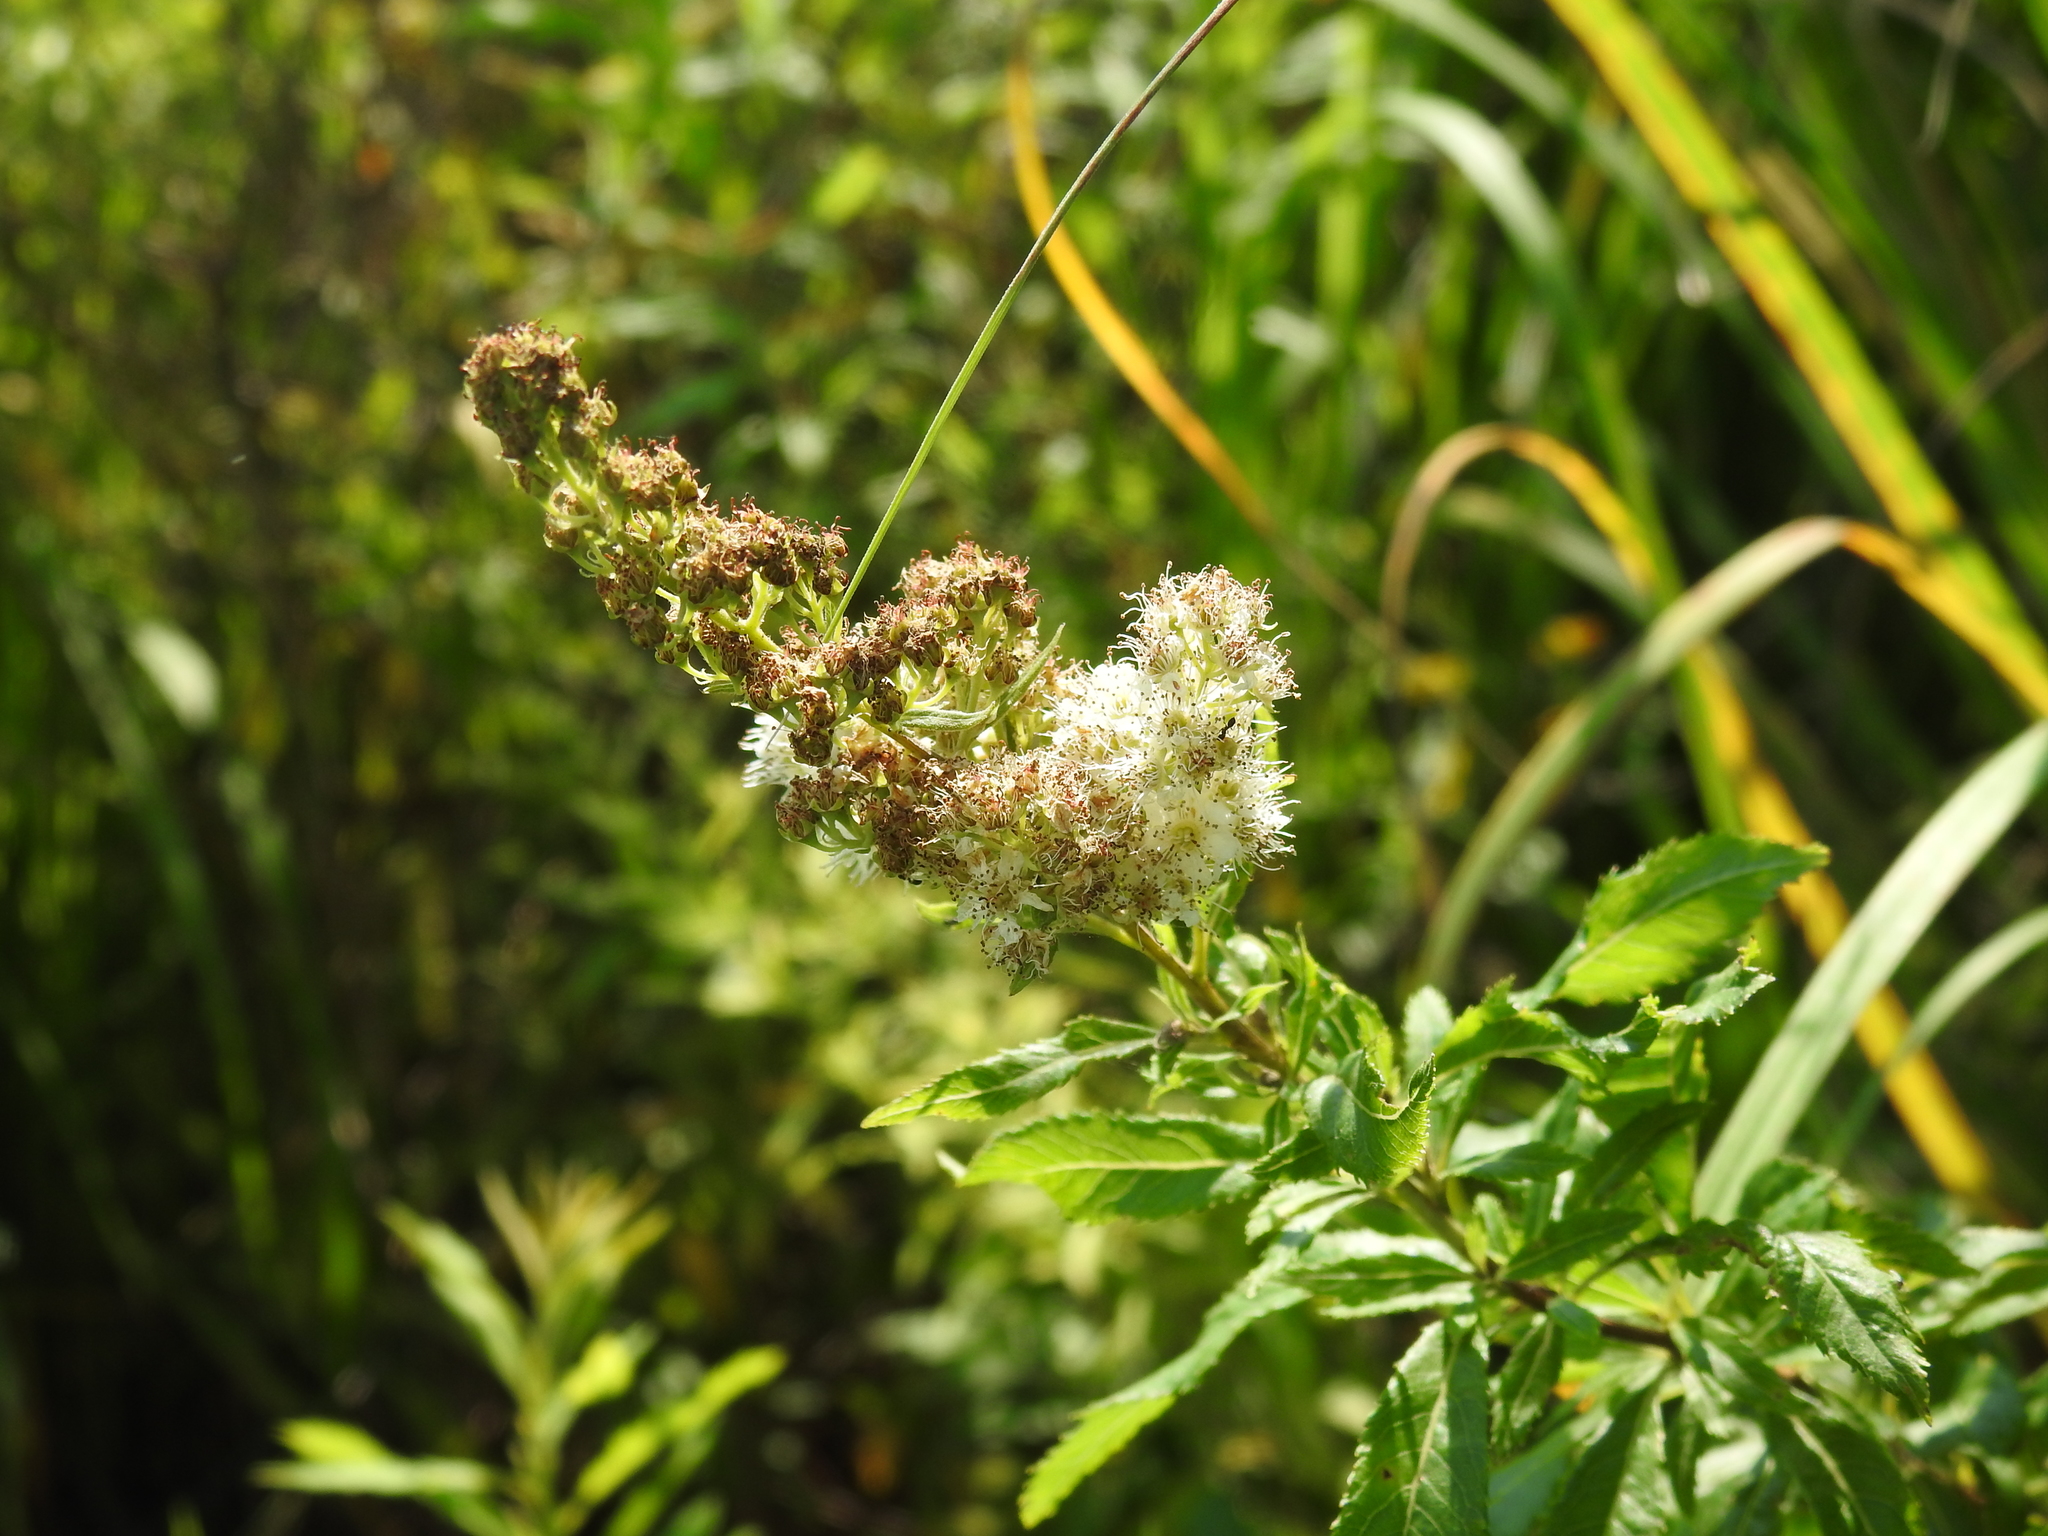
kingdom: Plantae
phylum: Tracheophyta
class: Magnoliopsida
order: Rosales
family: Rosaceae
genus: Spiraea
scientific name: Spiraea alba
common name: Pale bridewort
